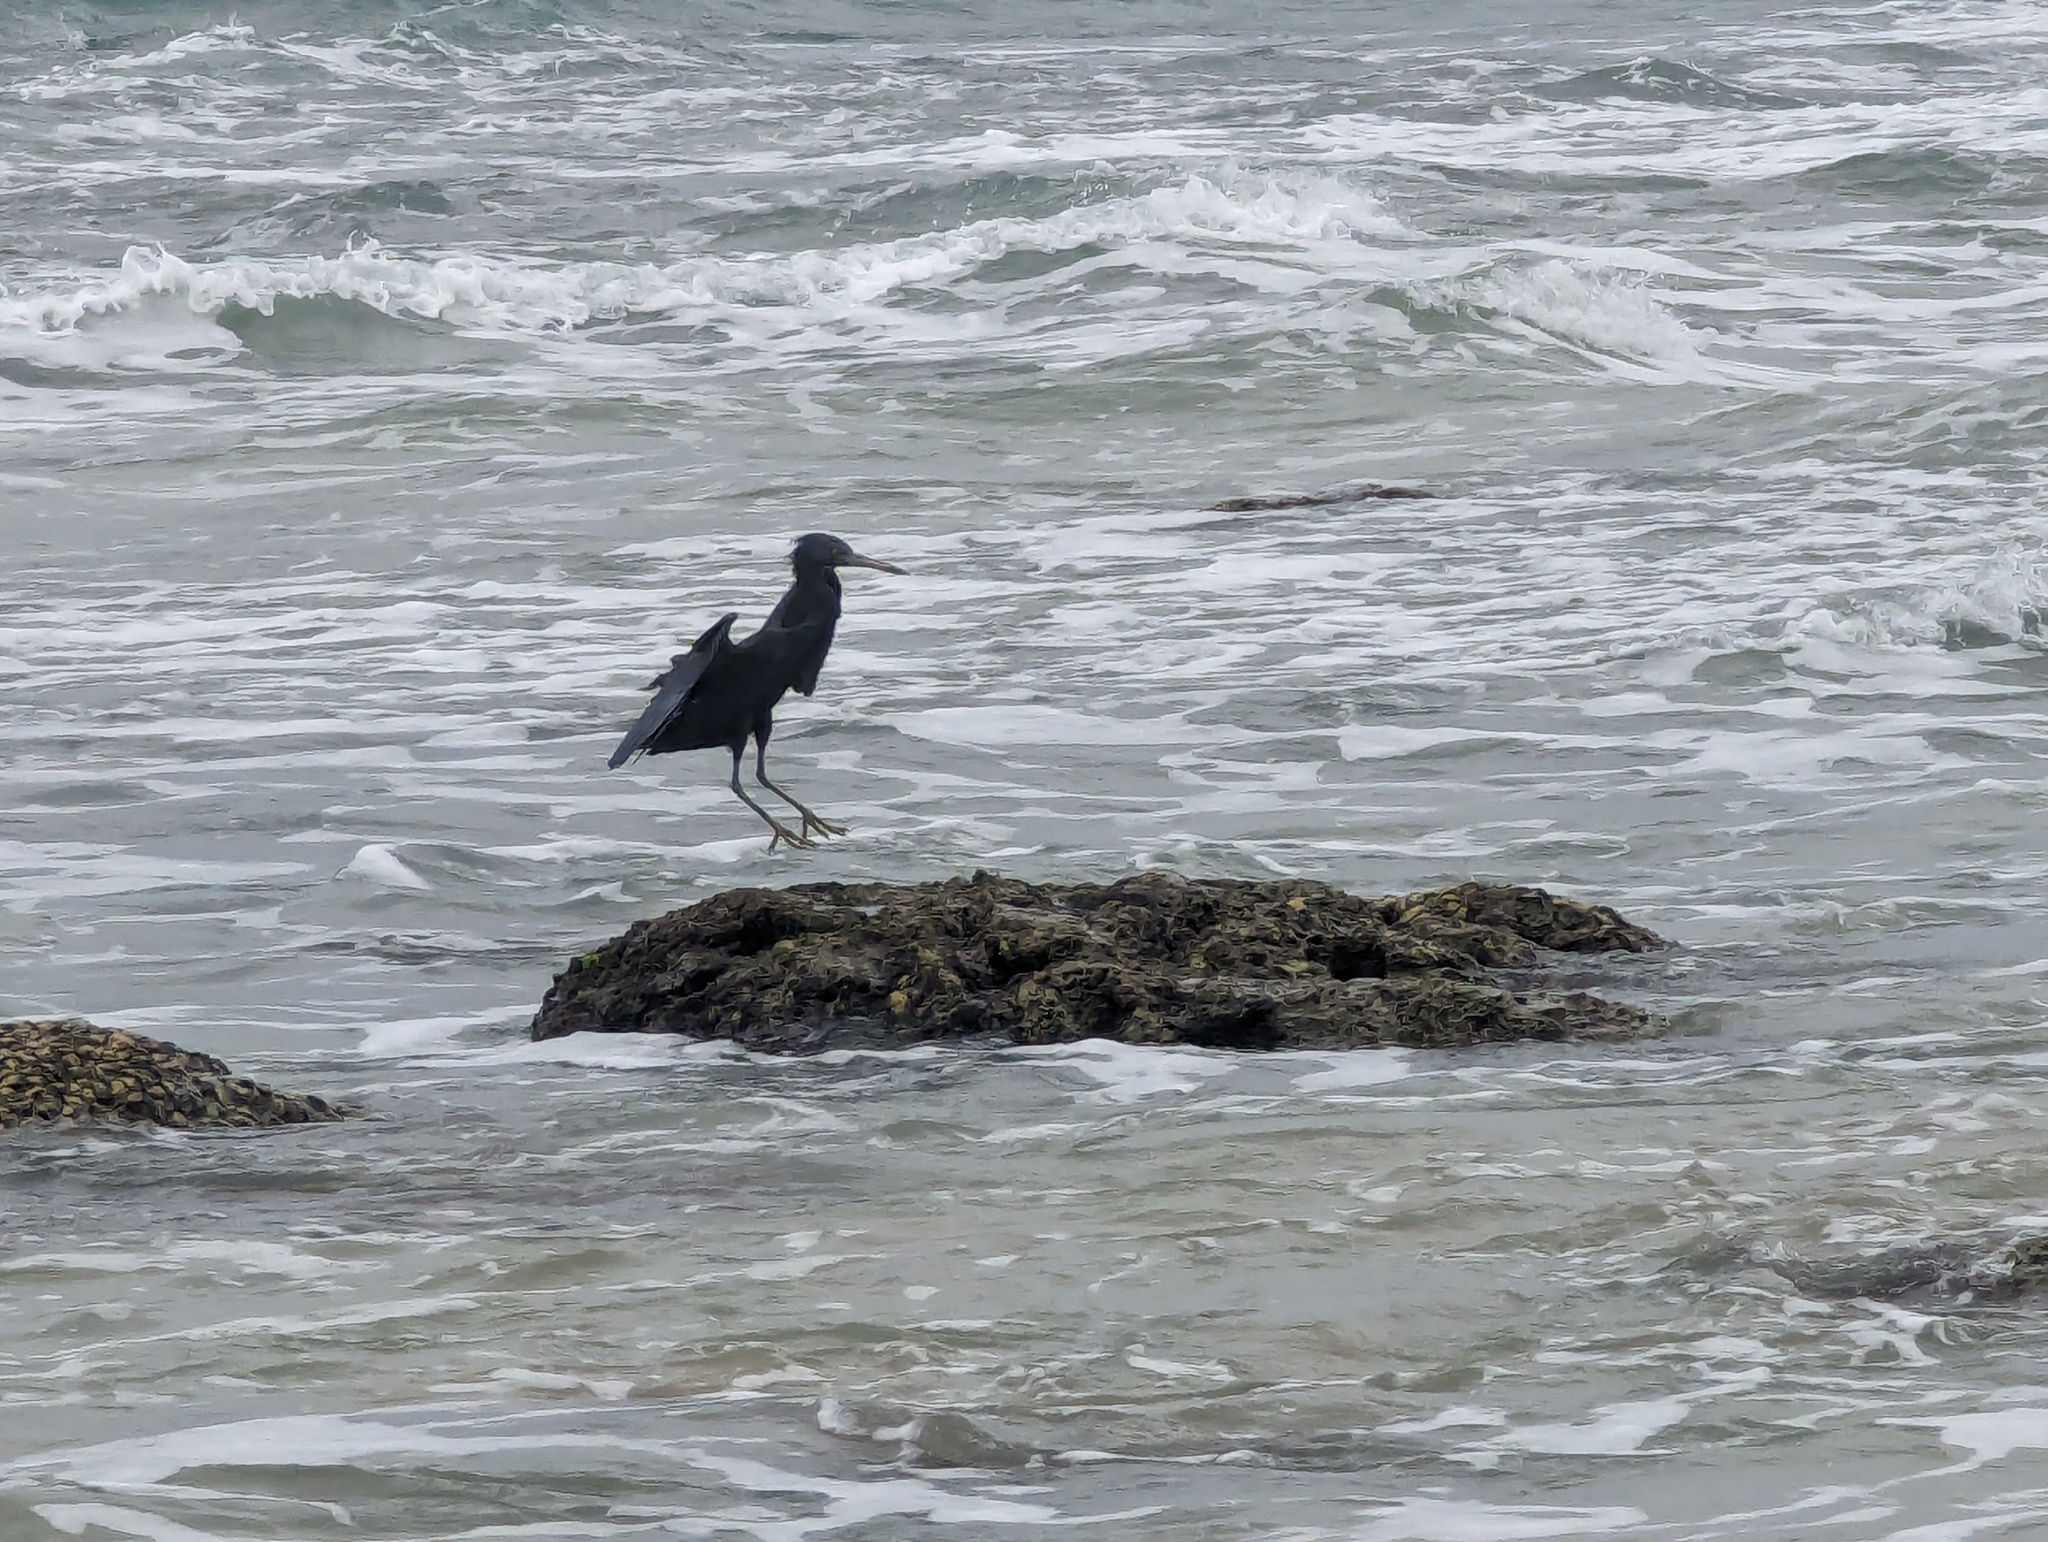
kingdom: Animalia
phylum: Chordata
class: Aves
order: Pelecaniformes
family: Ardeidae
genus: Egretta
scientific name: Egretta sacra
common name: Pacific reef heron
